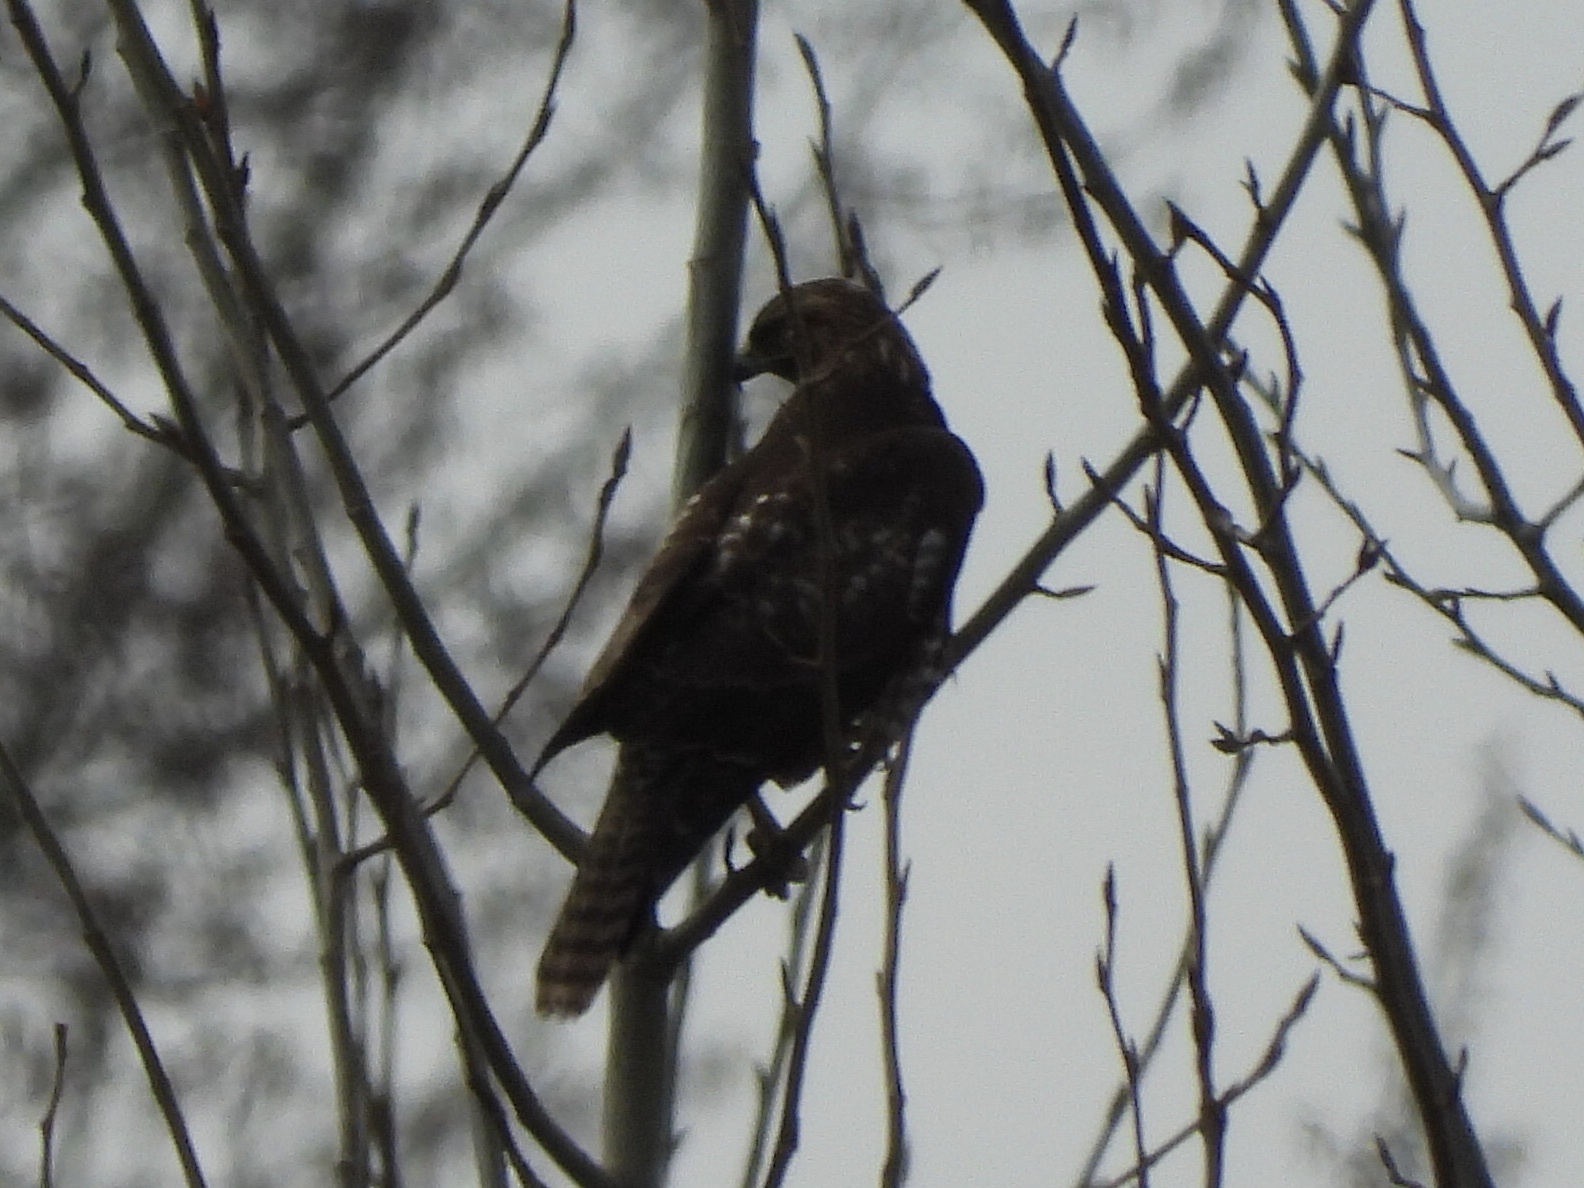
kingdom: Animalia
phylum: Chordata
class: Aves
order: Accipitriformes
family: Accipitridae
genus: Buteo
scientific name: Buteo jamaicensis
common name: Red-tailed hawk
